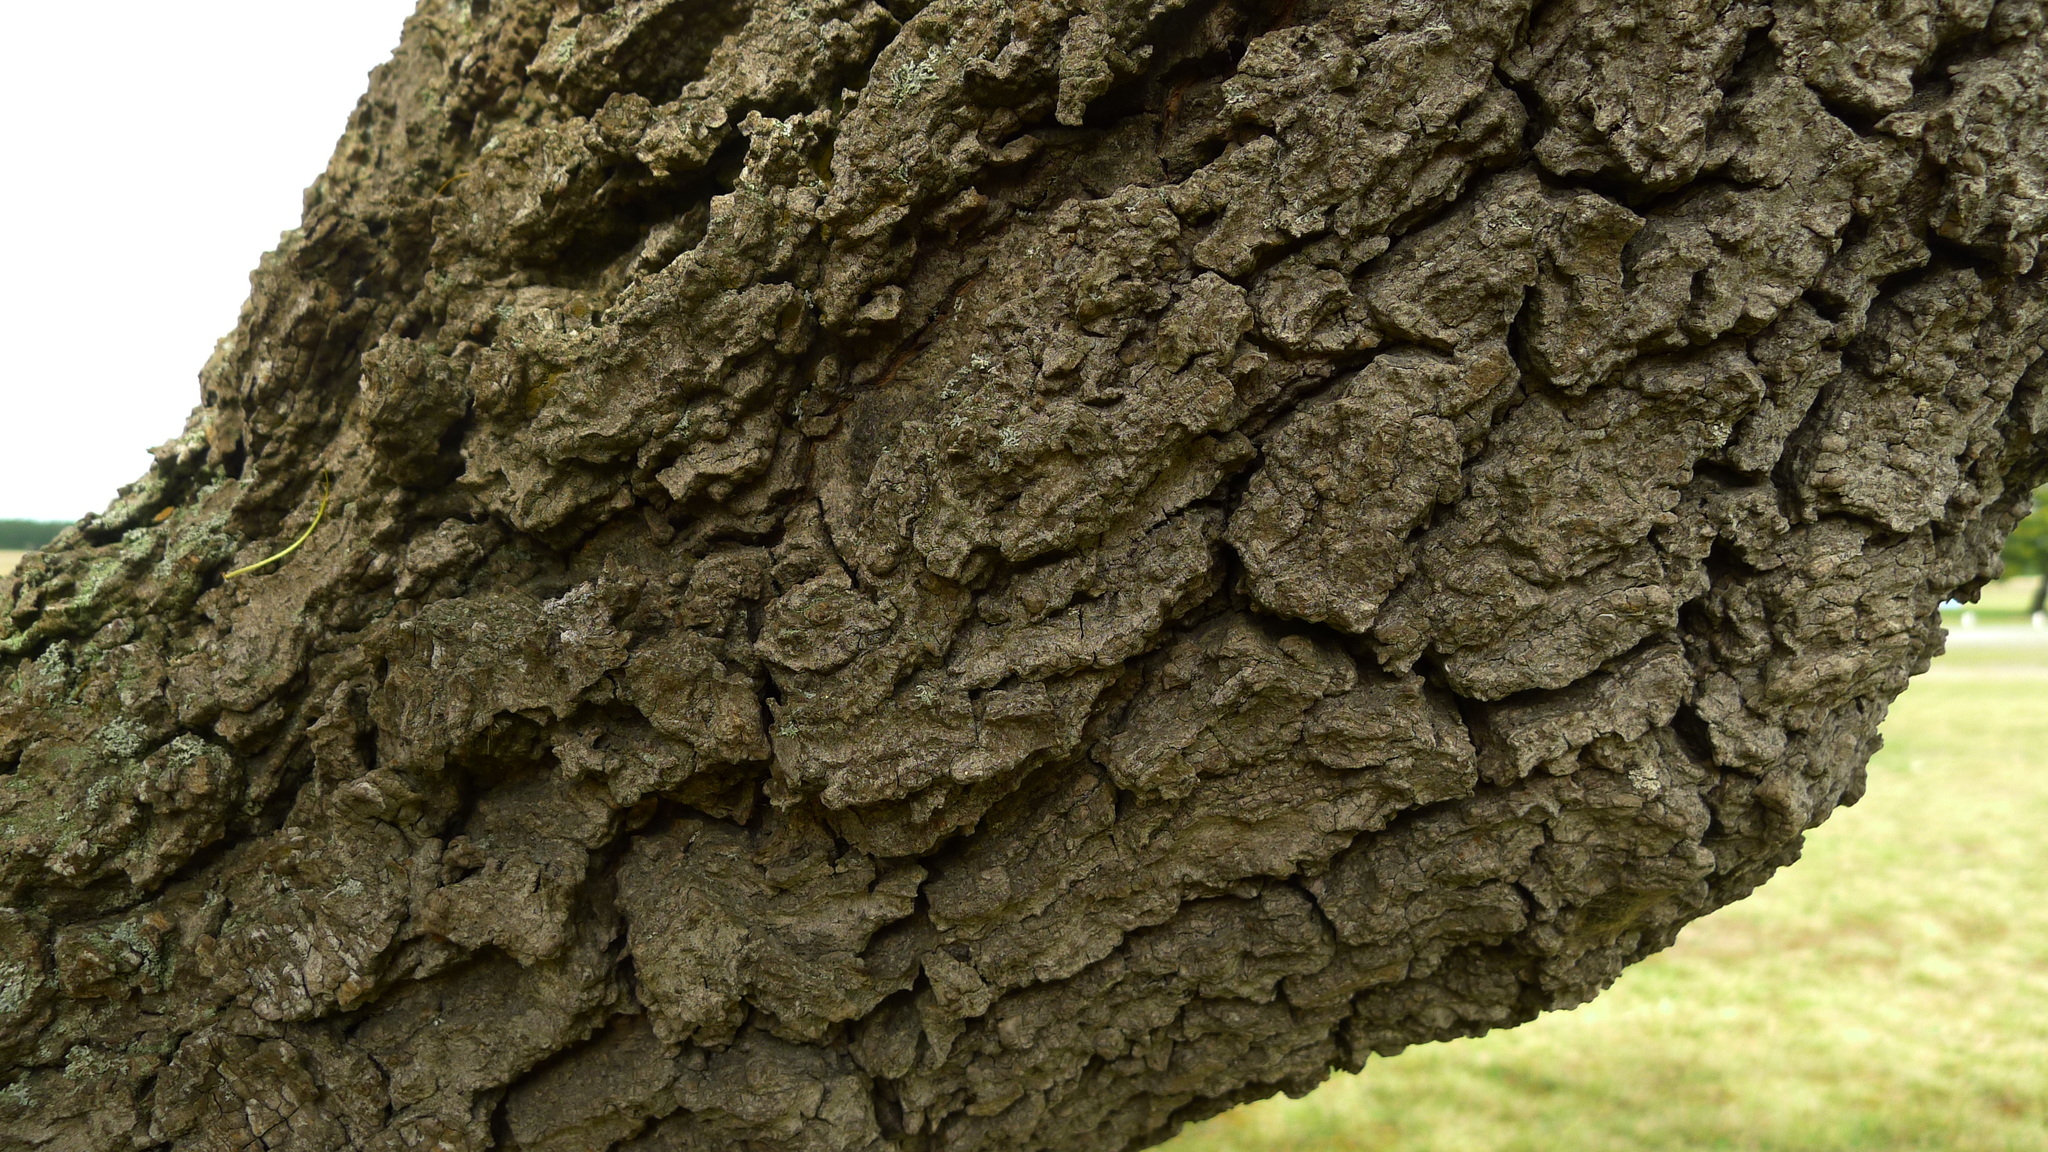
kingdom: Plantae
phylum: Tracheophyta
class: Magnoliopsida
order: Fabales
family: Fabaceae
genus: Sophora
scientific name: Sophora microphylla
